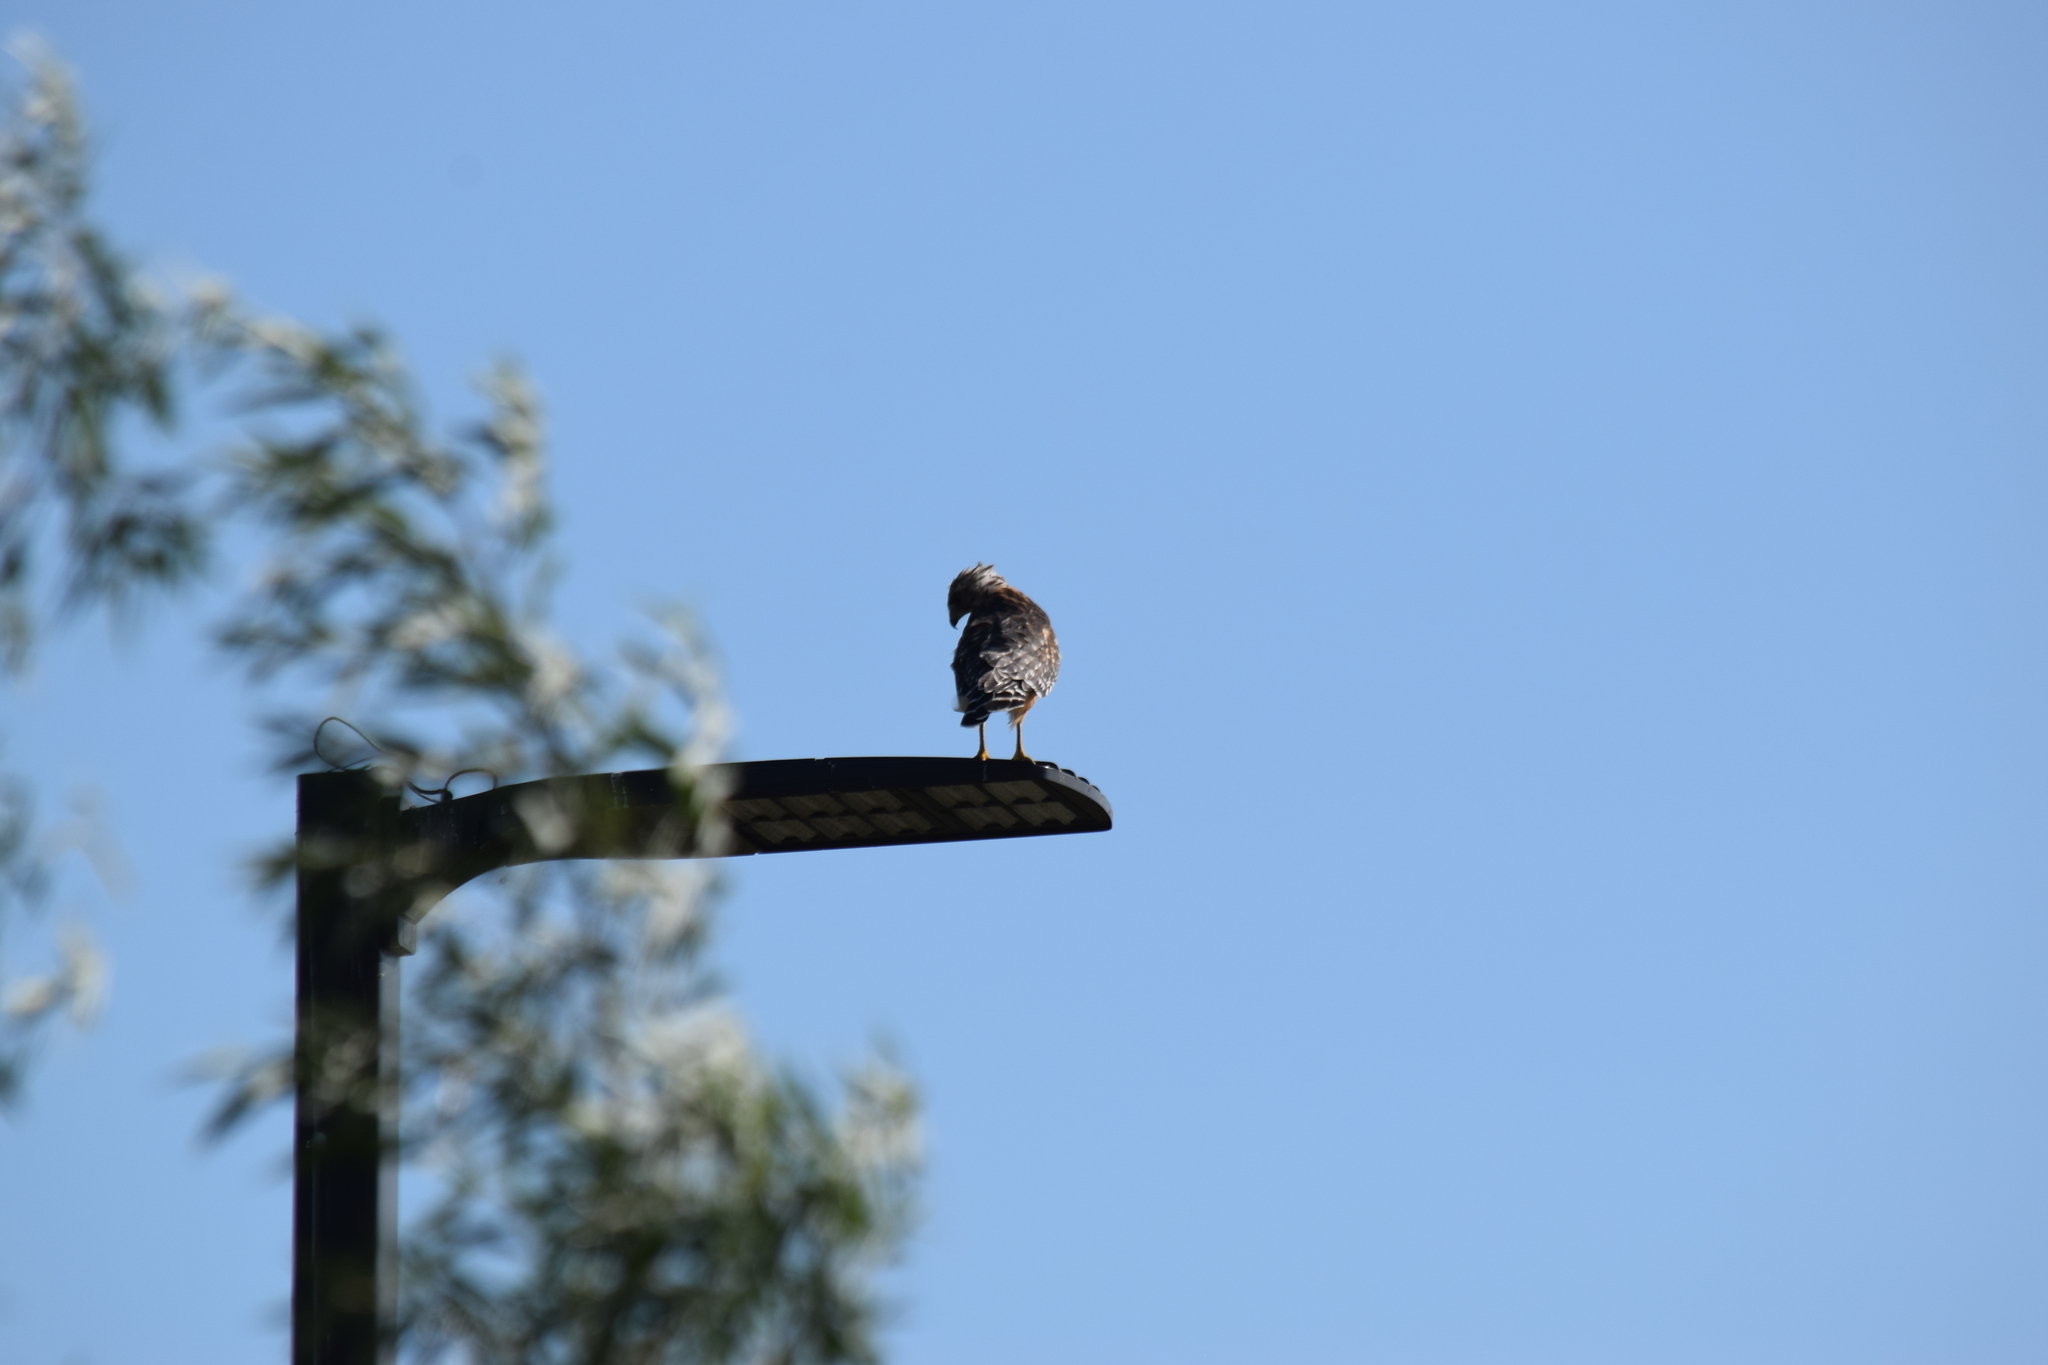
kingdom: Animalia
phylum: Chordata
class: Aves
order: Accipitriformes
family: Accipitridae
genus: Buteo
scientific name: Buteo lineatus
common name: Red-shouldered hawk
